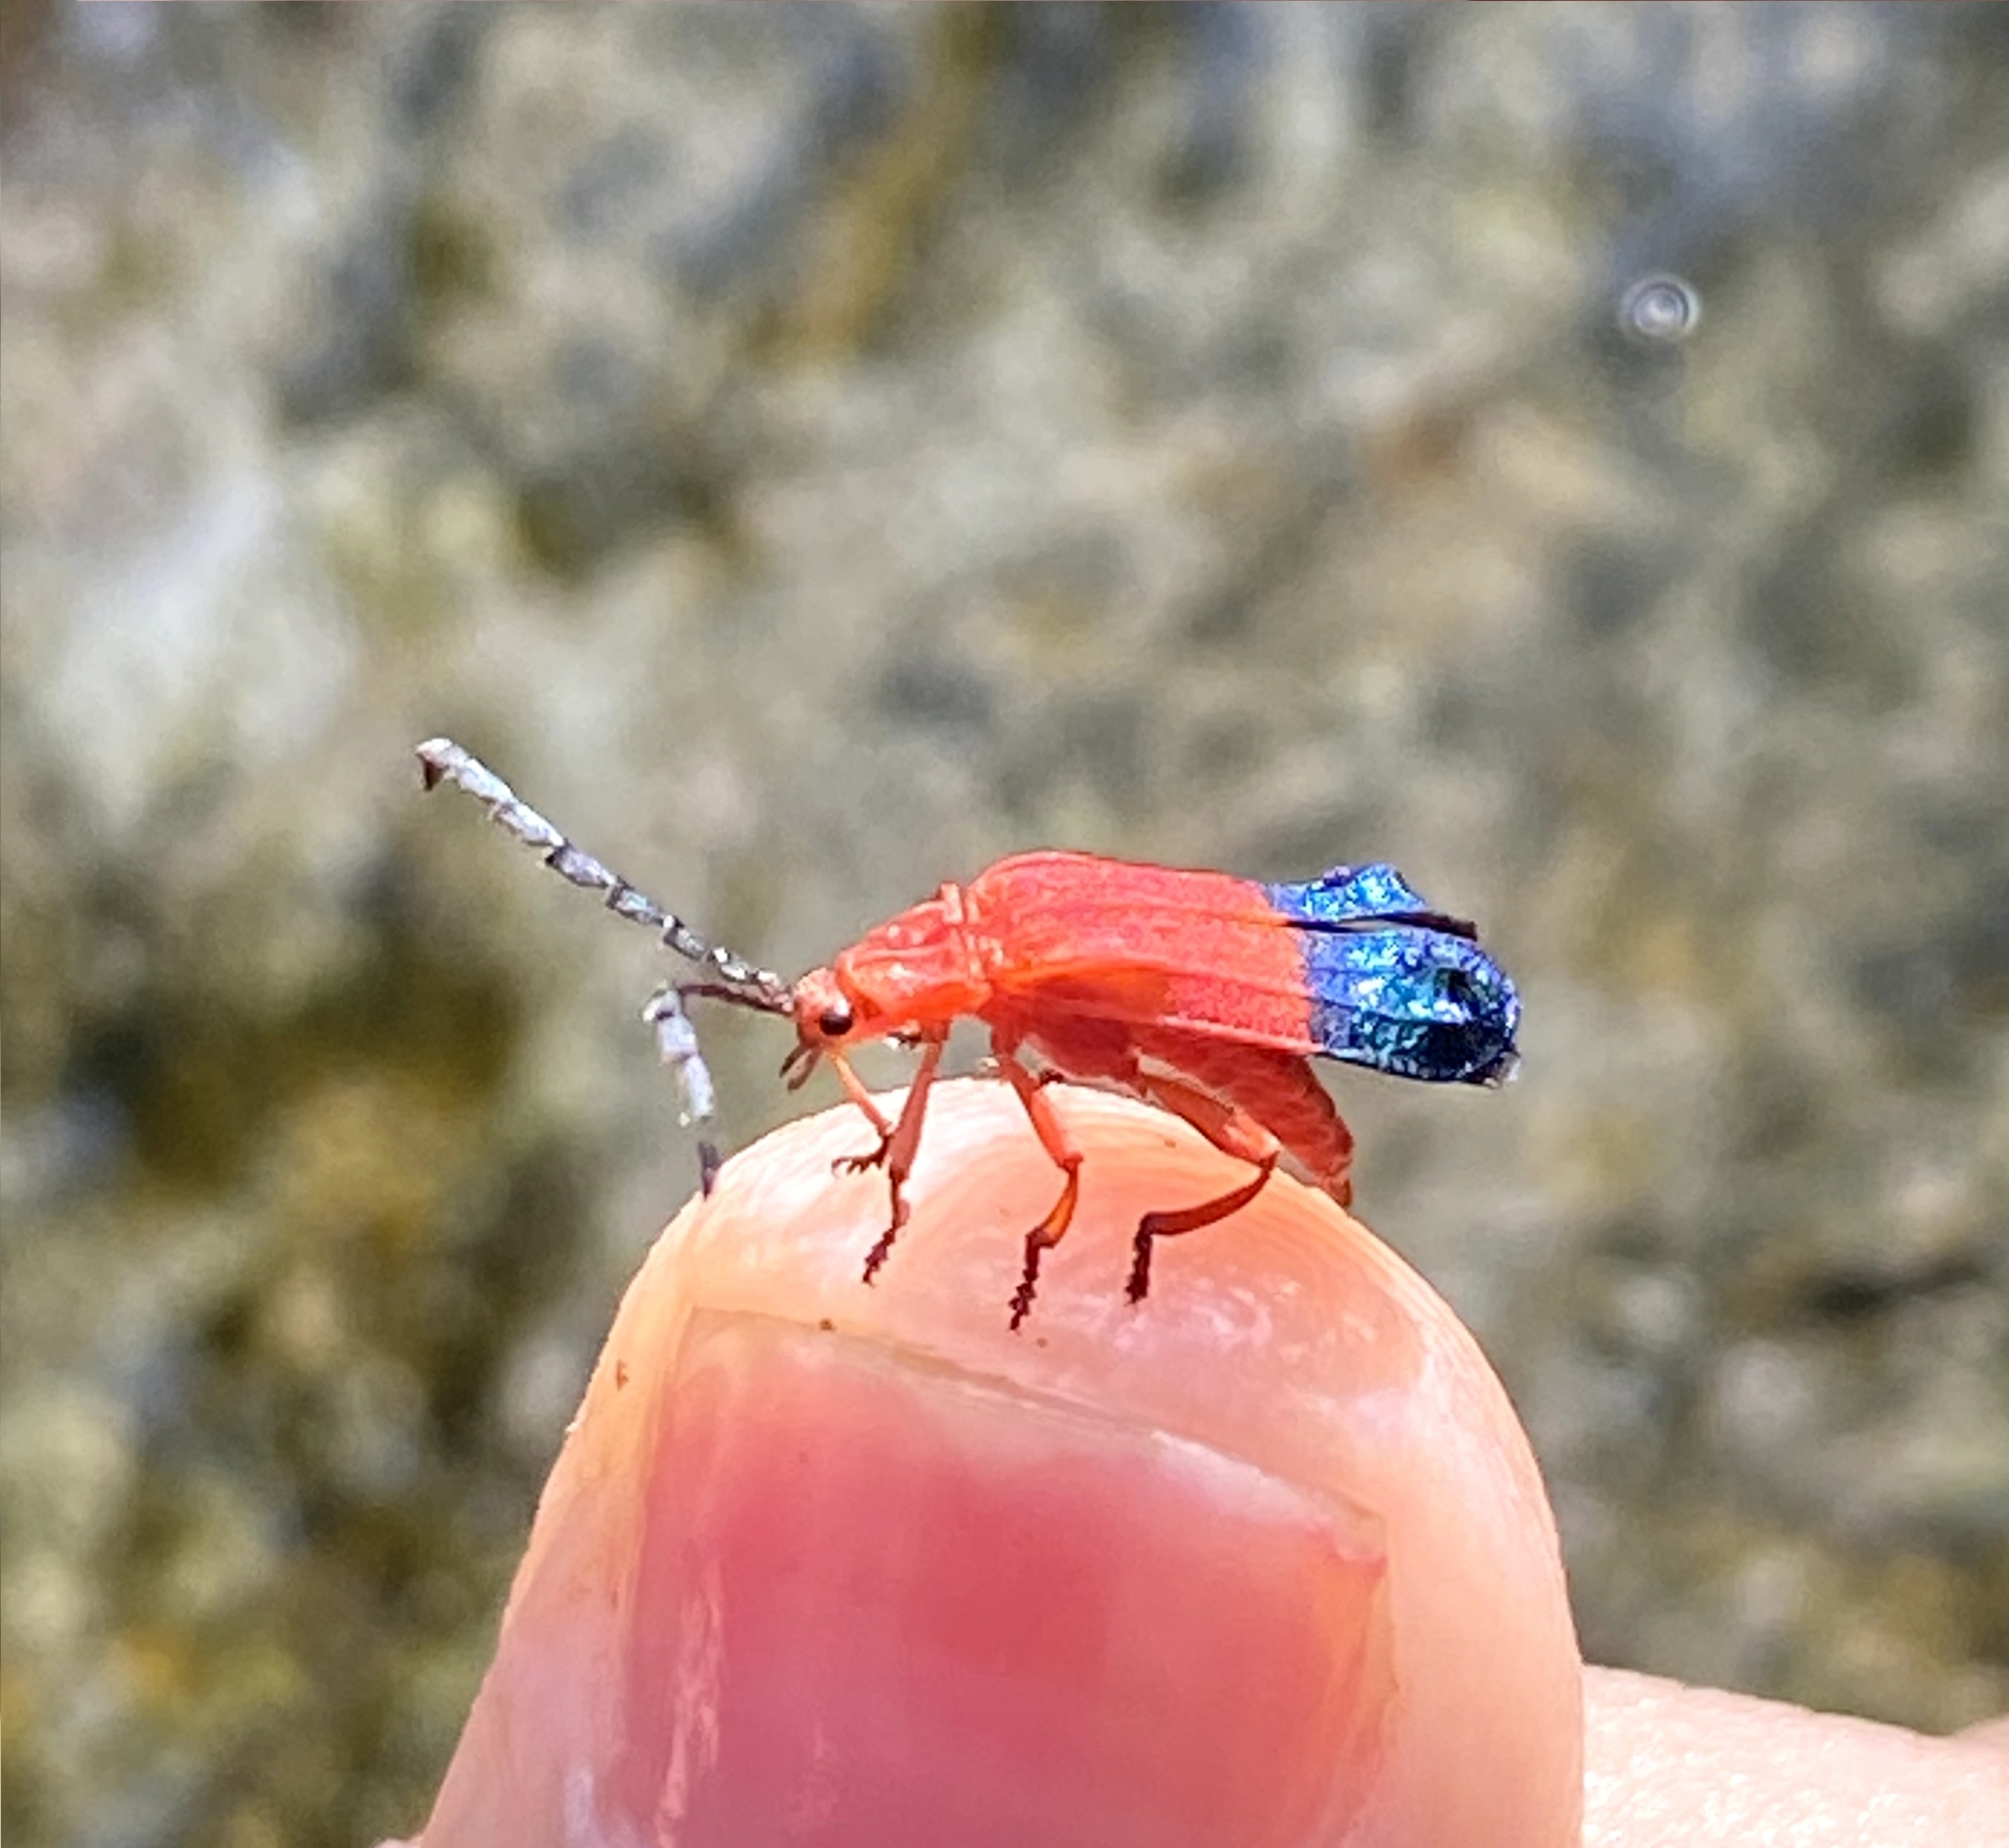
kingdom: Animalia
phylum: Arthropoda
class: Insecta
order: Coleoptera
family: Lycidae
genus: Thonalmus
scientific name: Thonalmus dominicensis
